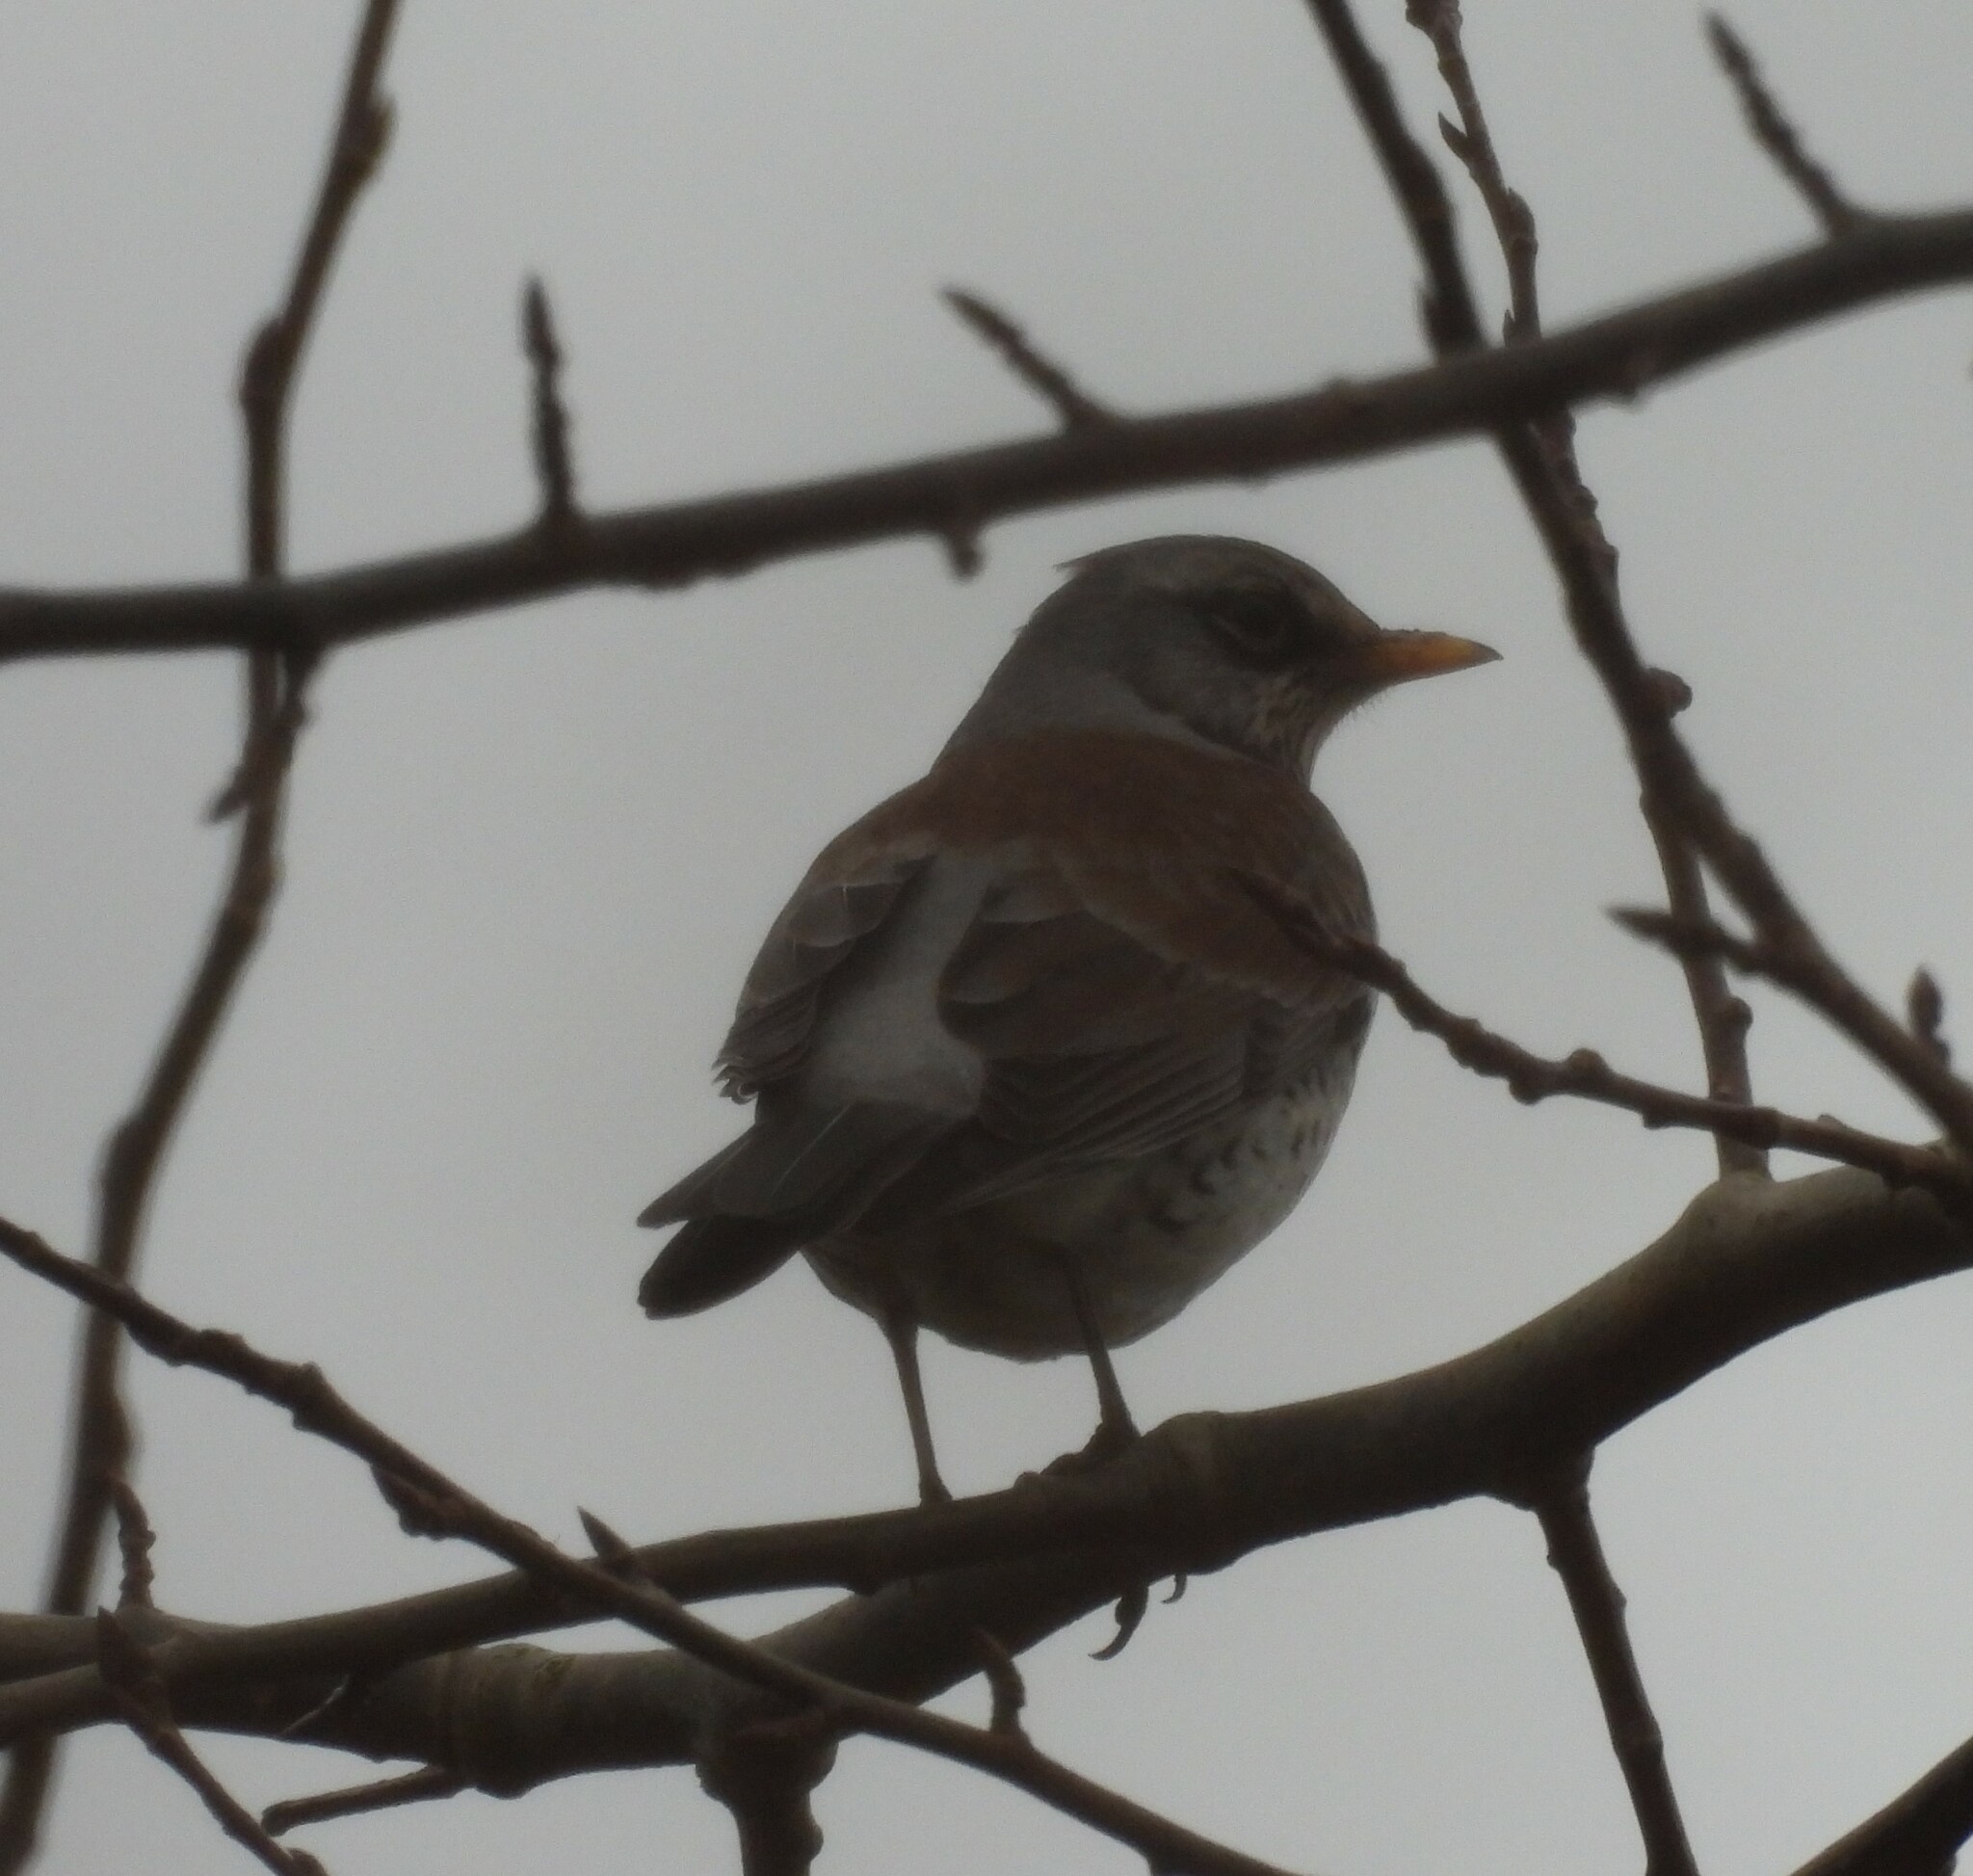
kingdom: Animalia
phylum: Chordata
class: Aves
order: Passeriformes
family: Turdidae
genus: Turdus
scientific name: Turdus pilaris
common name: Fieldfare
